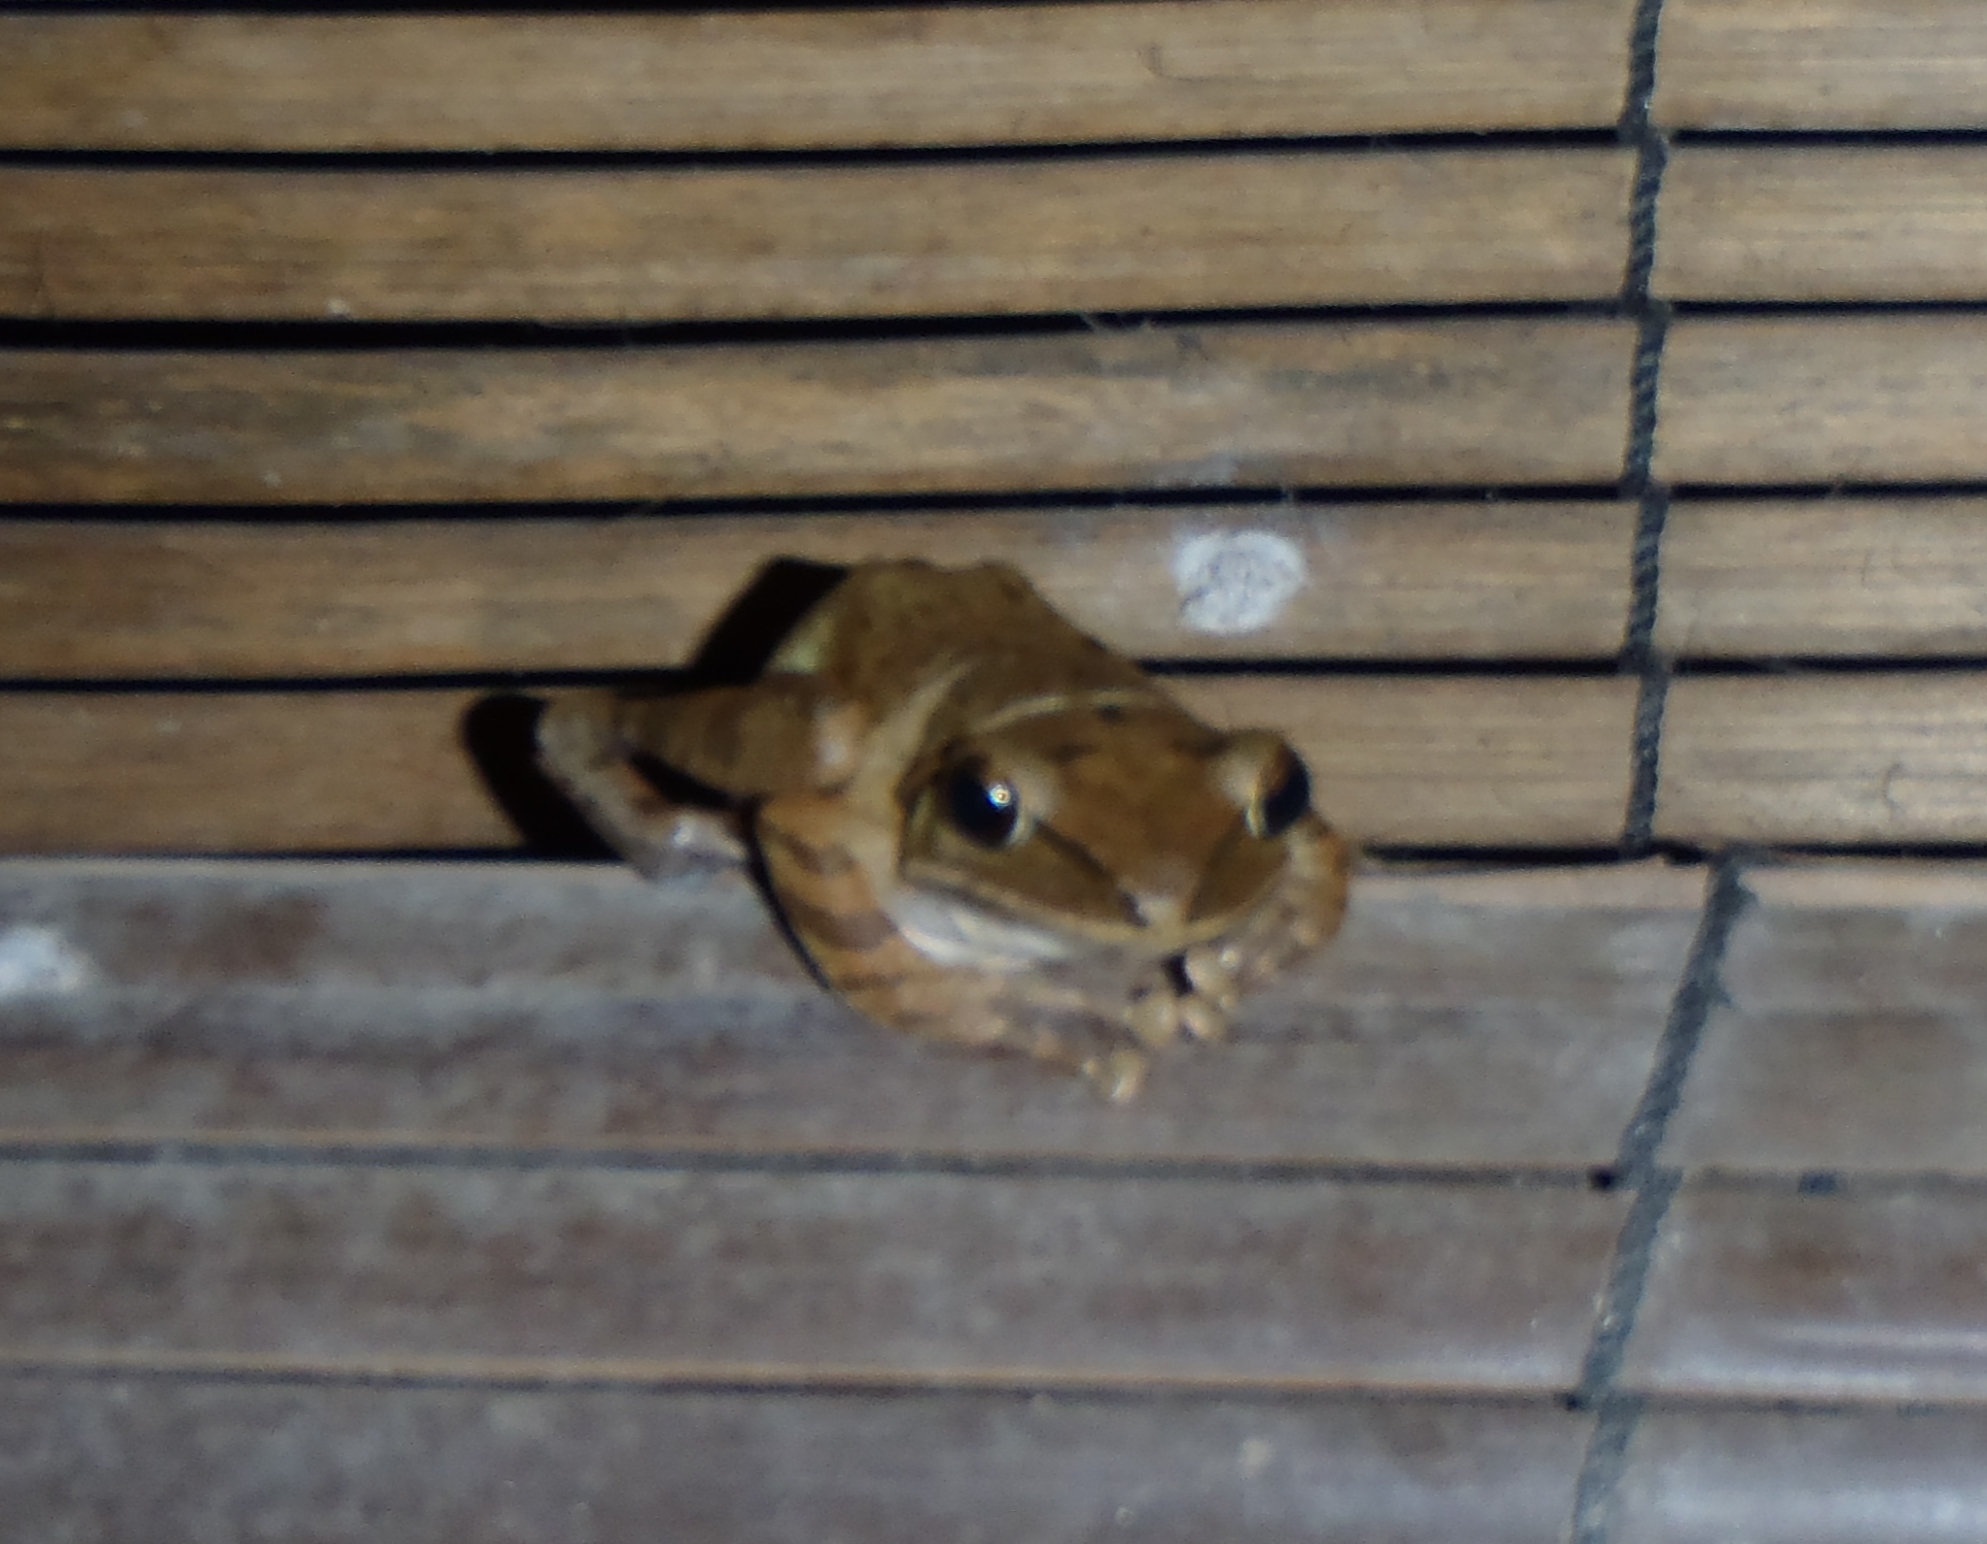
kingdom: Animalia
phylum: Chordata
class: Amphibia
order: Anura
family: Rhacophoridae
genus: Polypedates
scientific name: Polypedates leucomystax
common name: Common tree frog/four-lined tree frog
